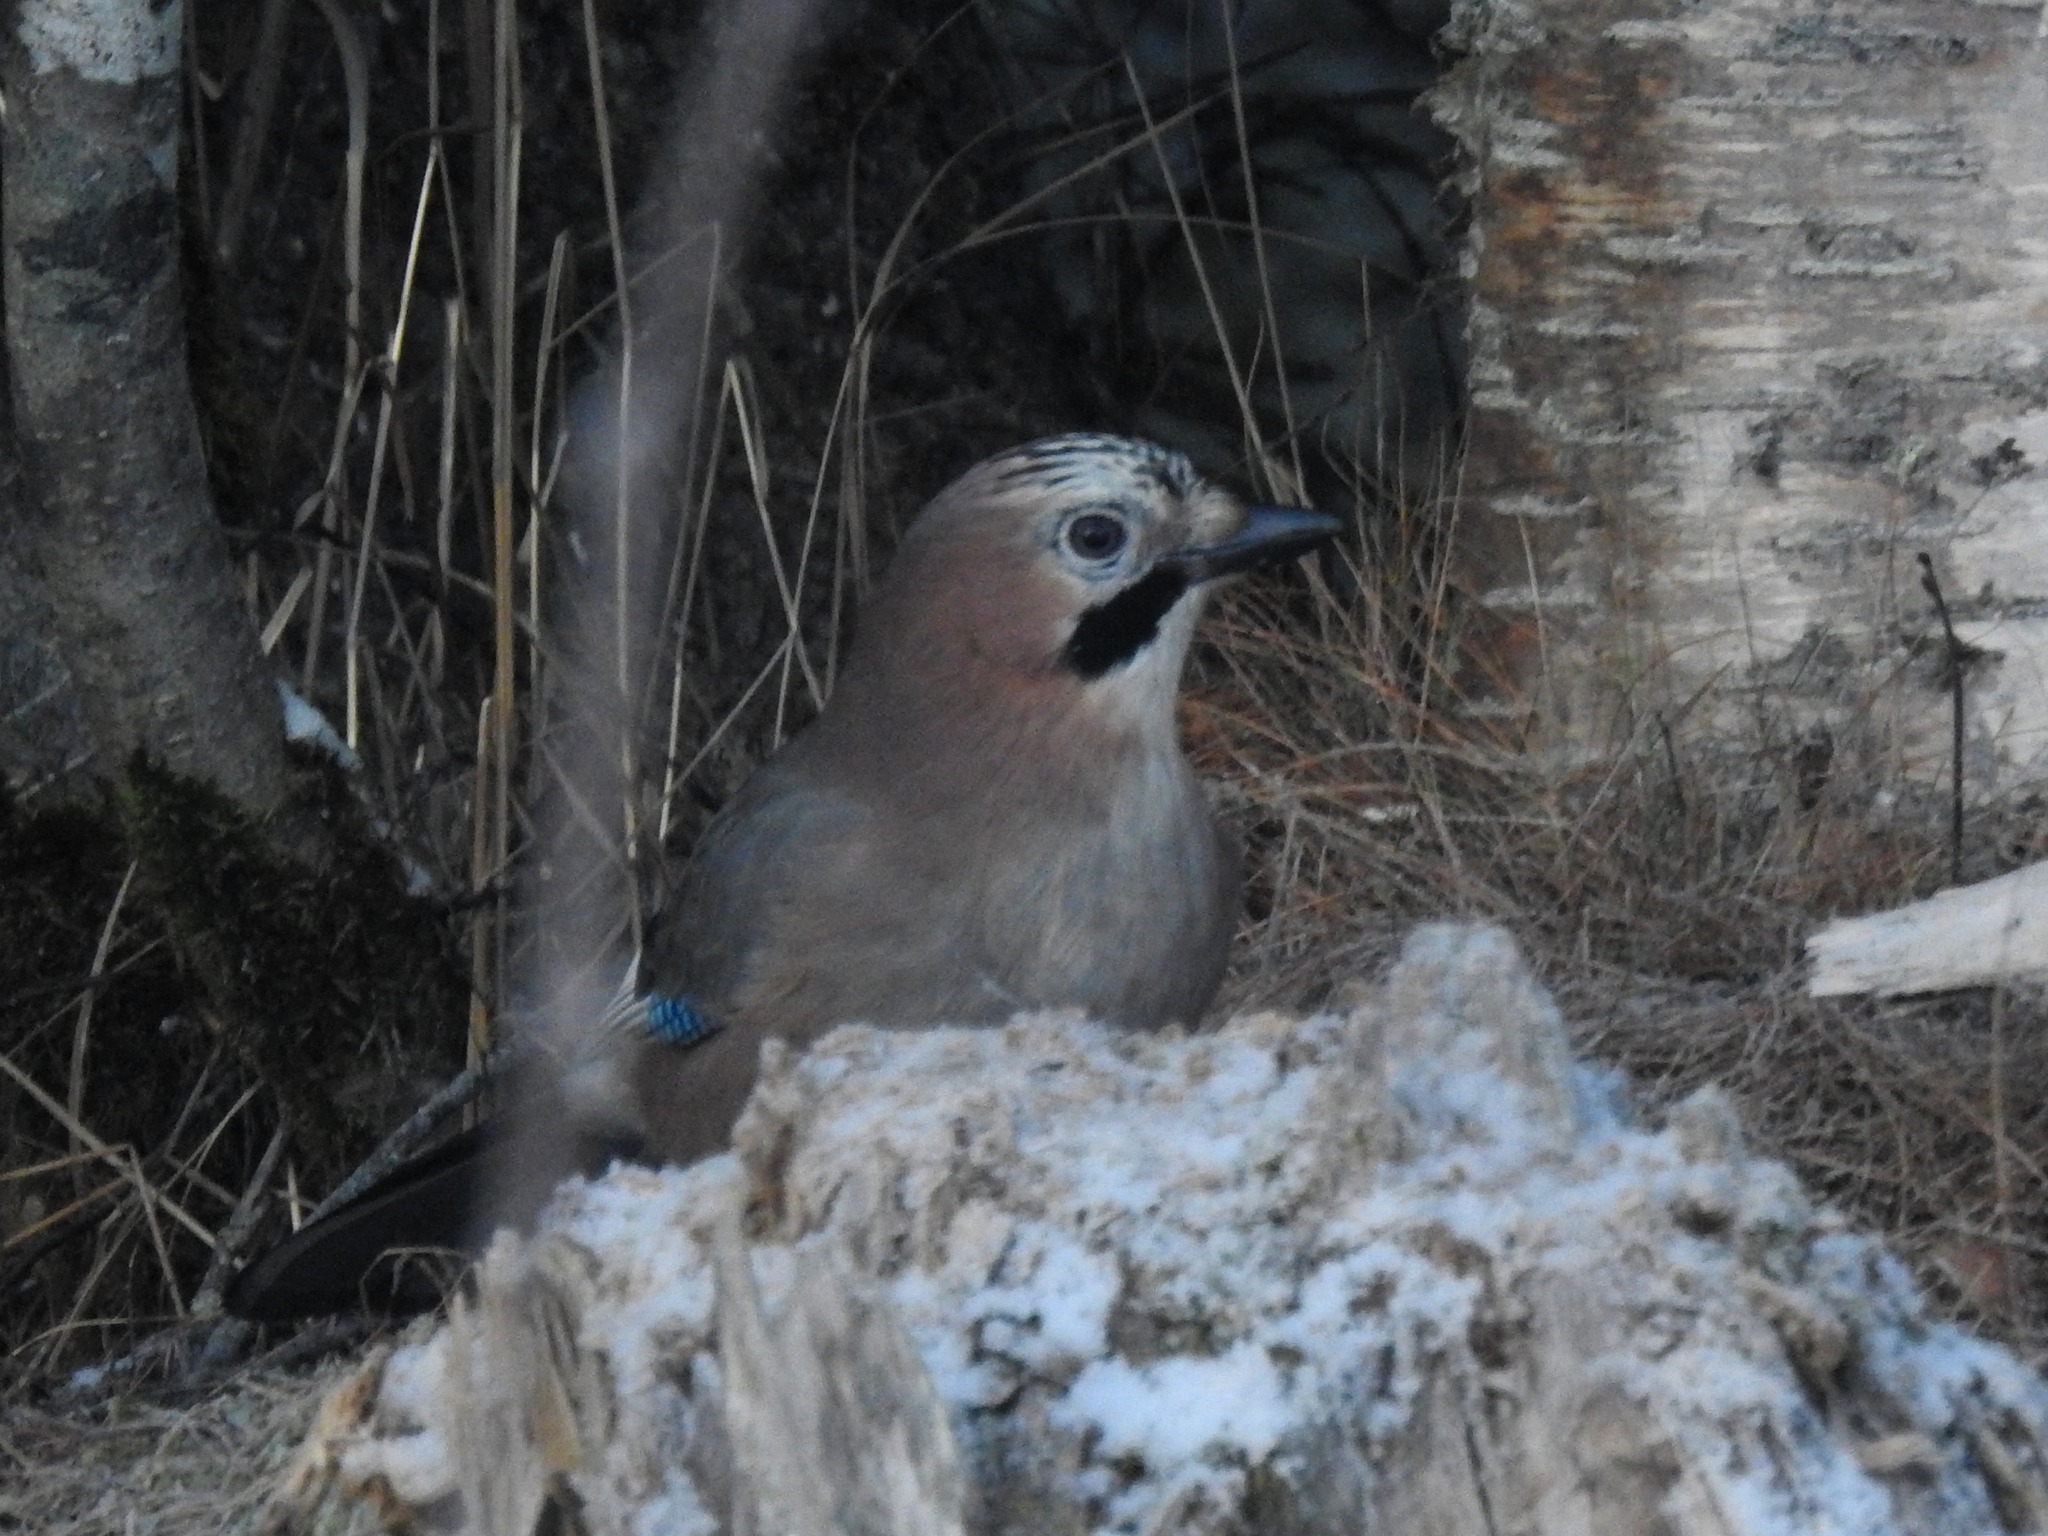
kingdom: Animalia
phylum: Chordata
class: Aves
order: Passeriformes
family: Corvidae
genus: Garrulus
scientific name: Garrulus glandarius
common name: Eurasian jay
